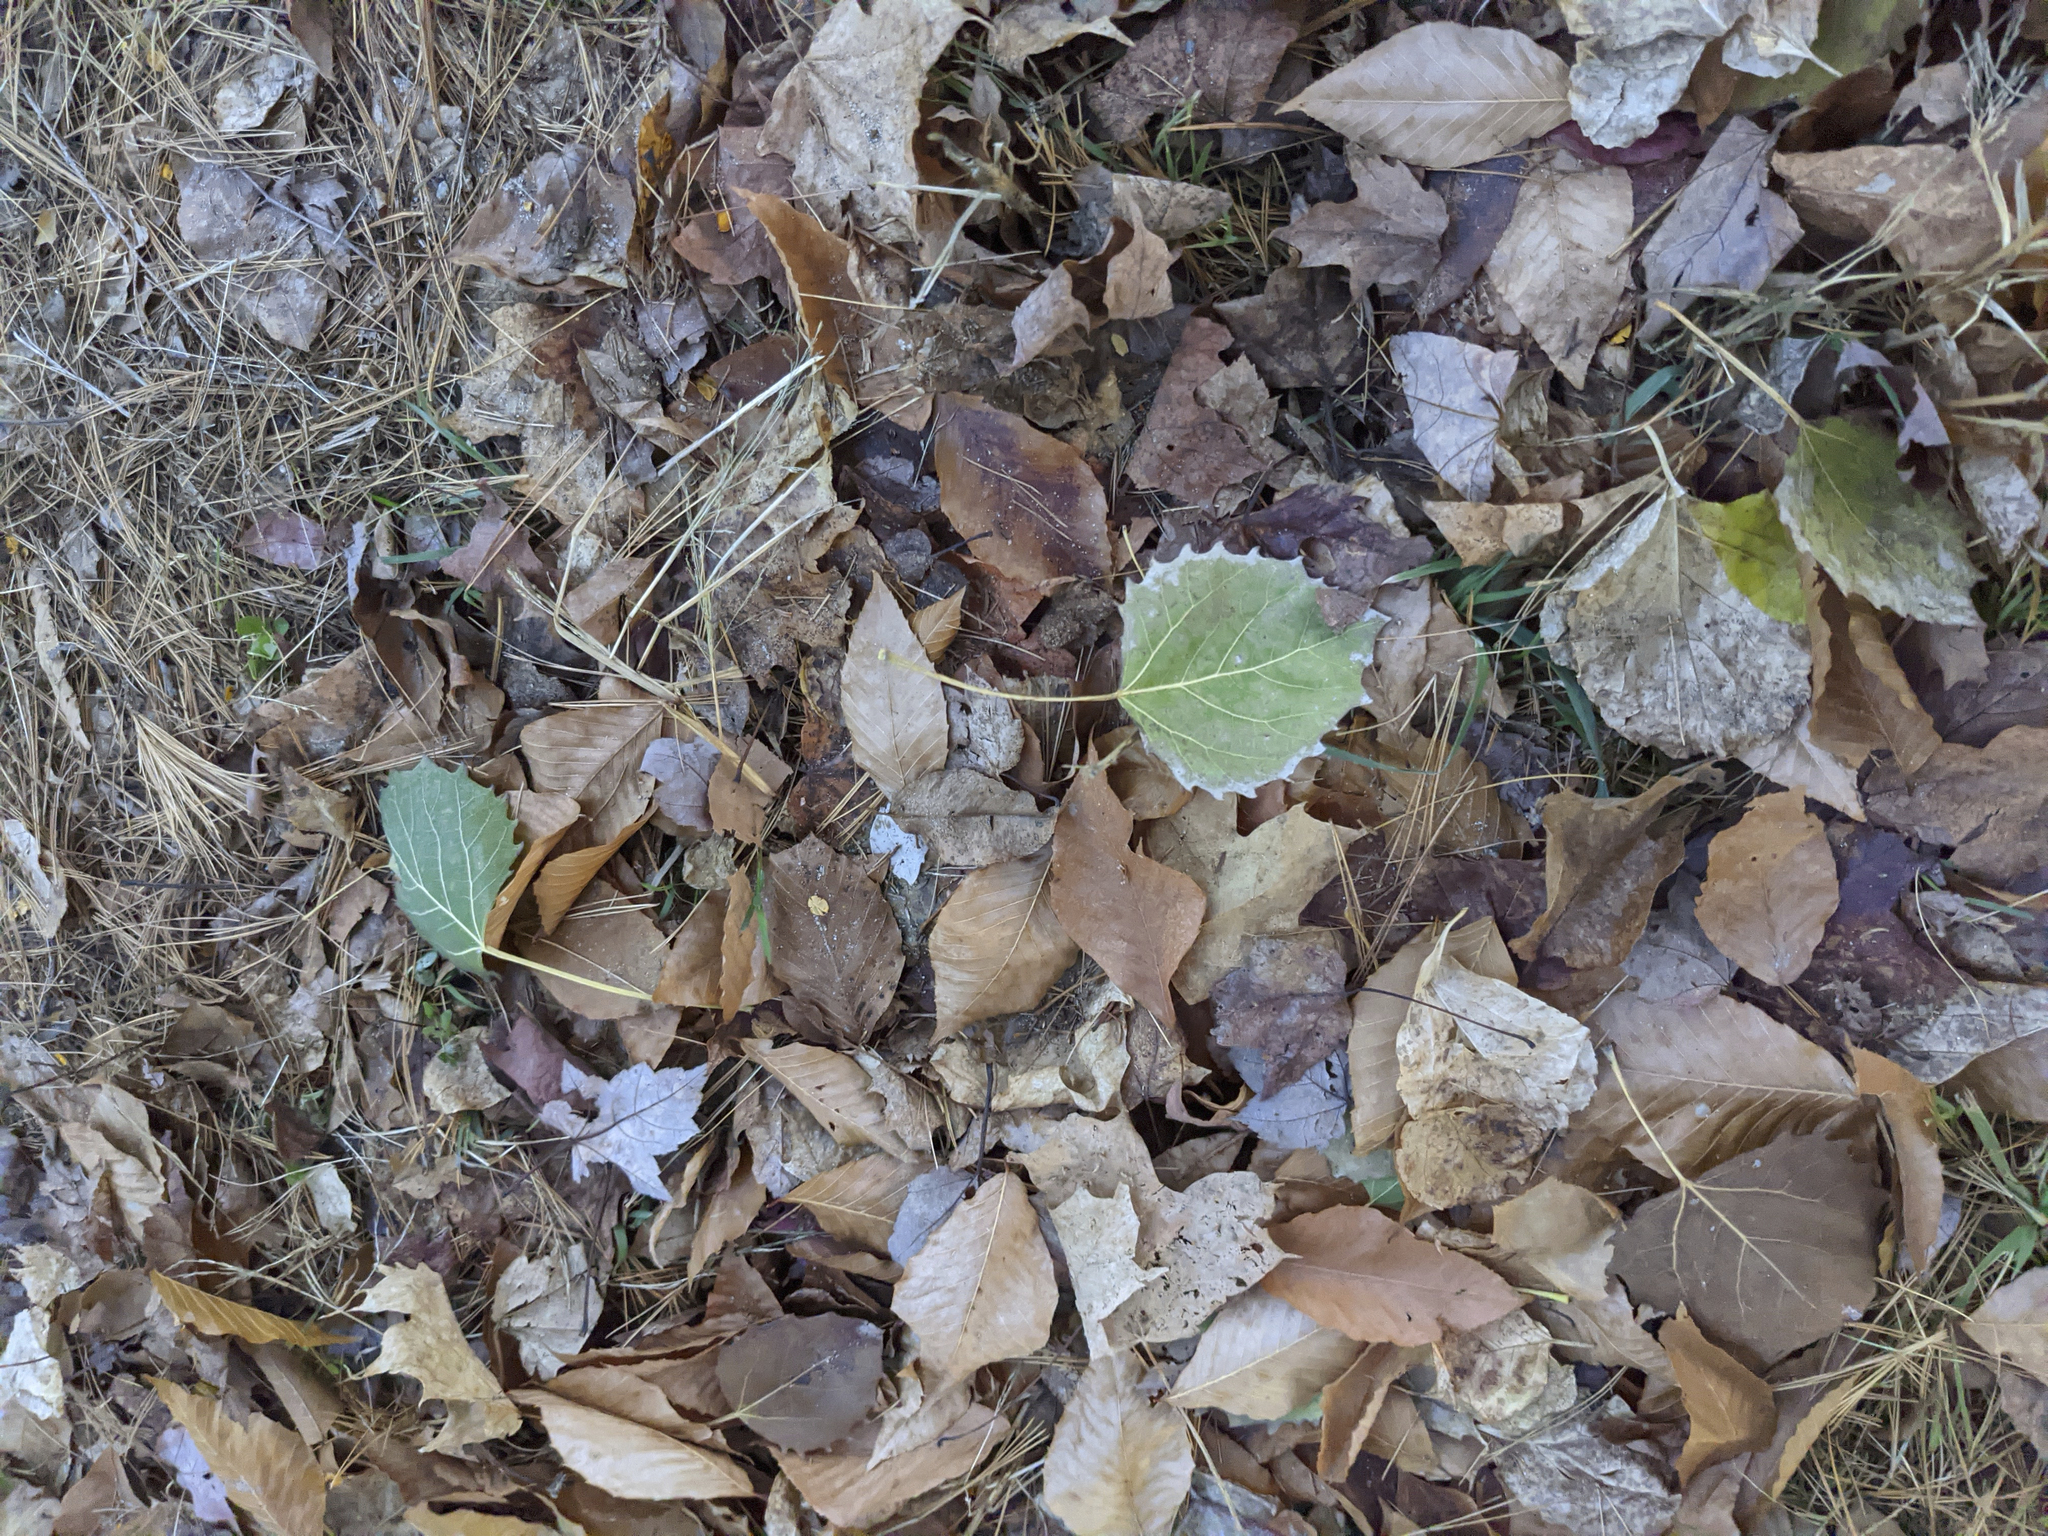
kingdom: Plantae
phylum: Tracheophyta
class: Magnoliopsida
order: Malpighiales
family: Salicaceae
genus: Populus
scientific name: Populus grandidentata
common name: Bigtooth aspen
